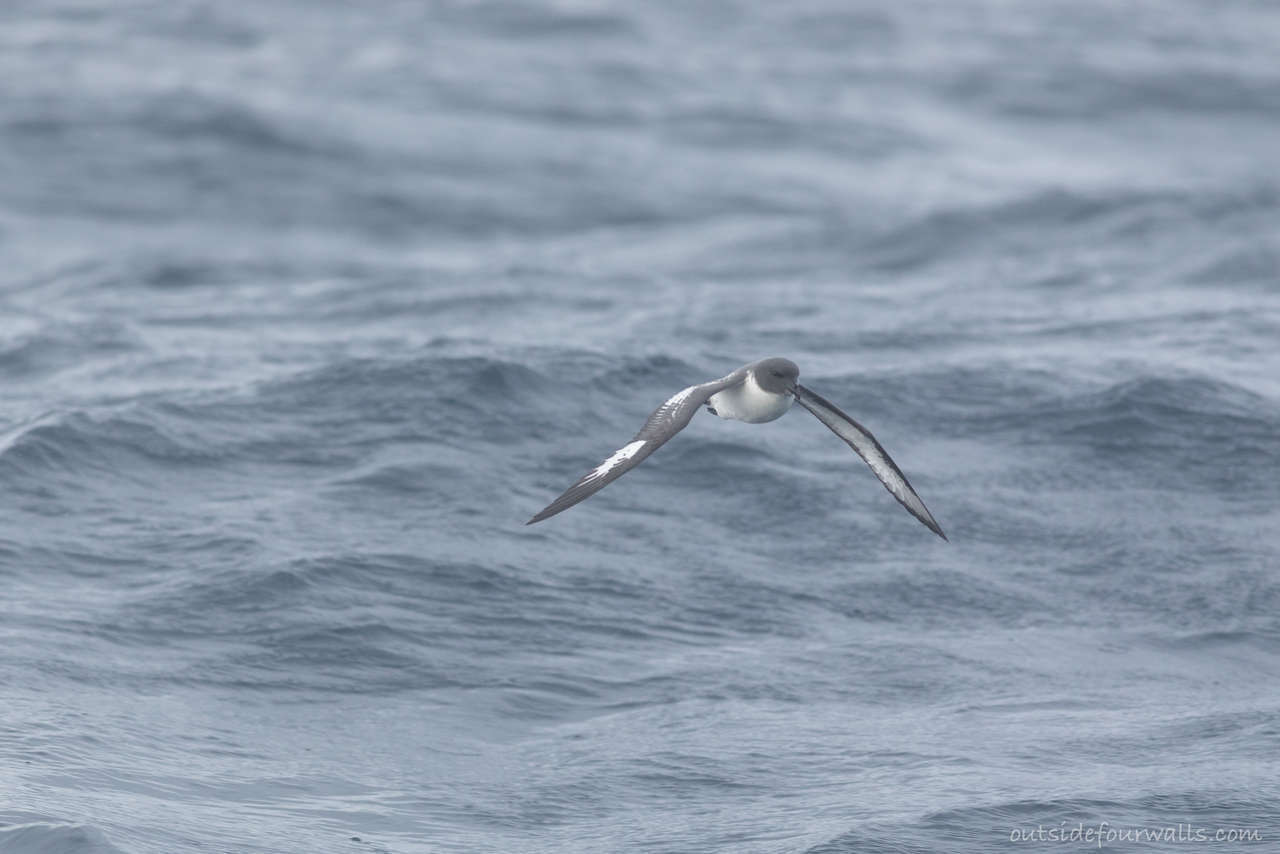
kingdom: Animalia
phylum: Chordata
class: Aves
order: Procellariiformes
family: Procellariidae
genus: Daption
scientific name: Daption capense
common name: Cape petrel
